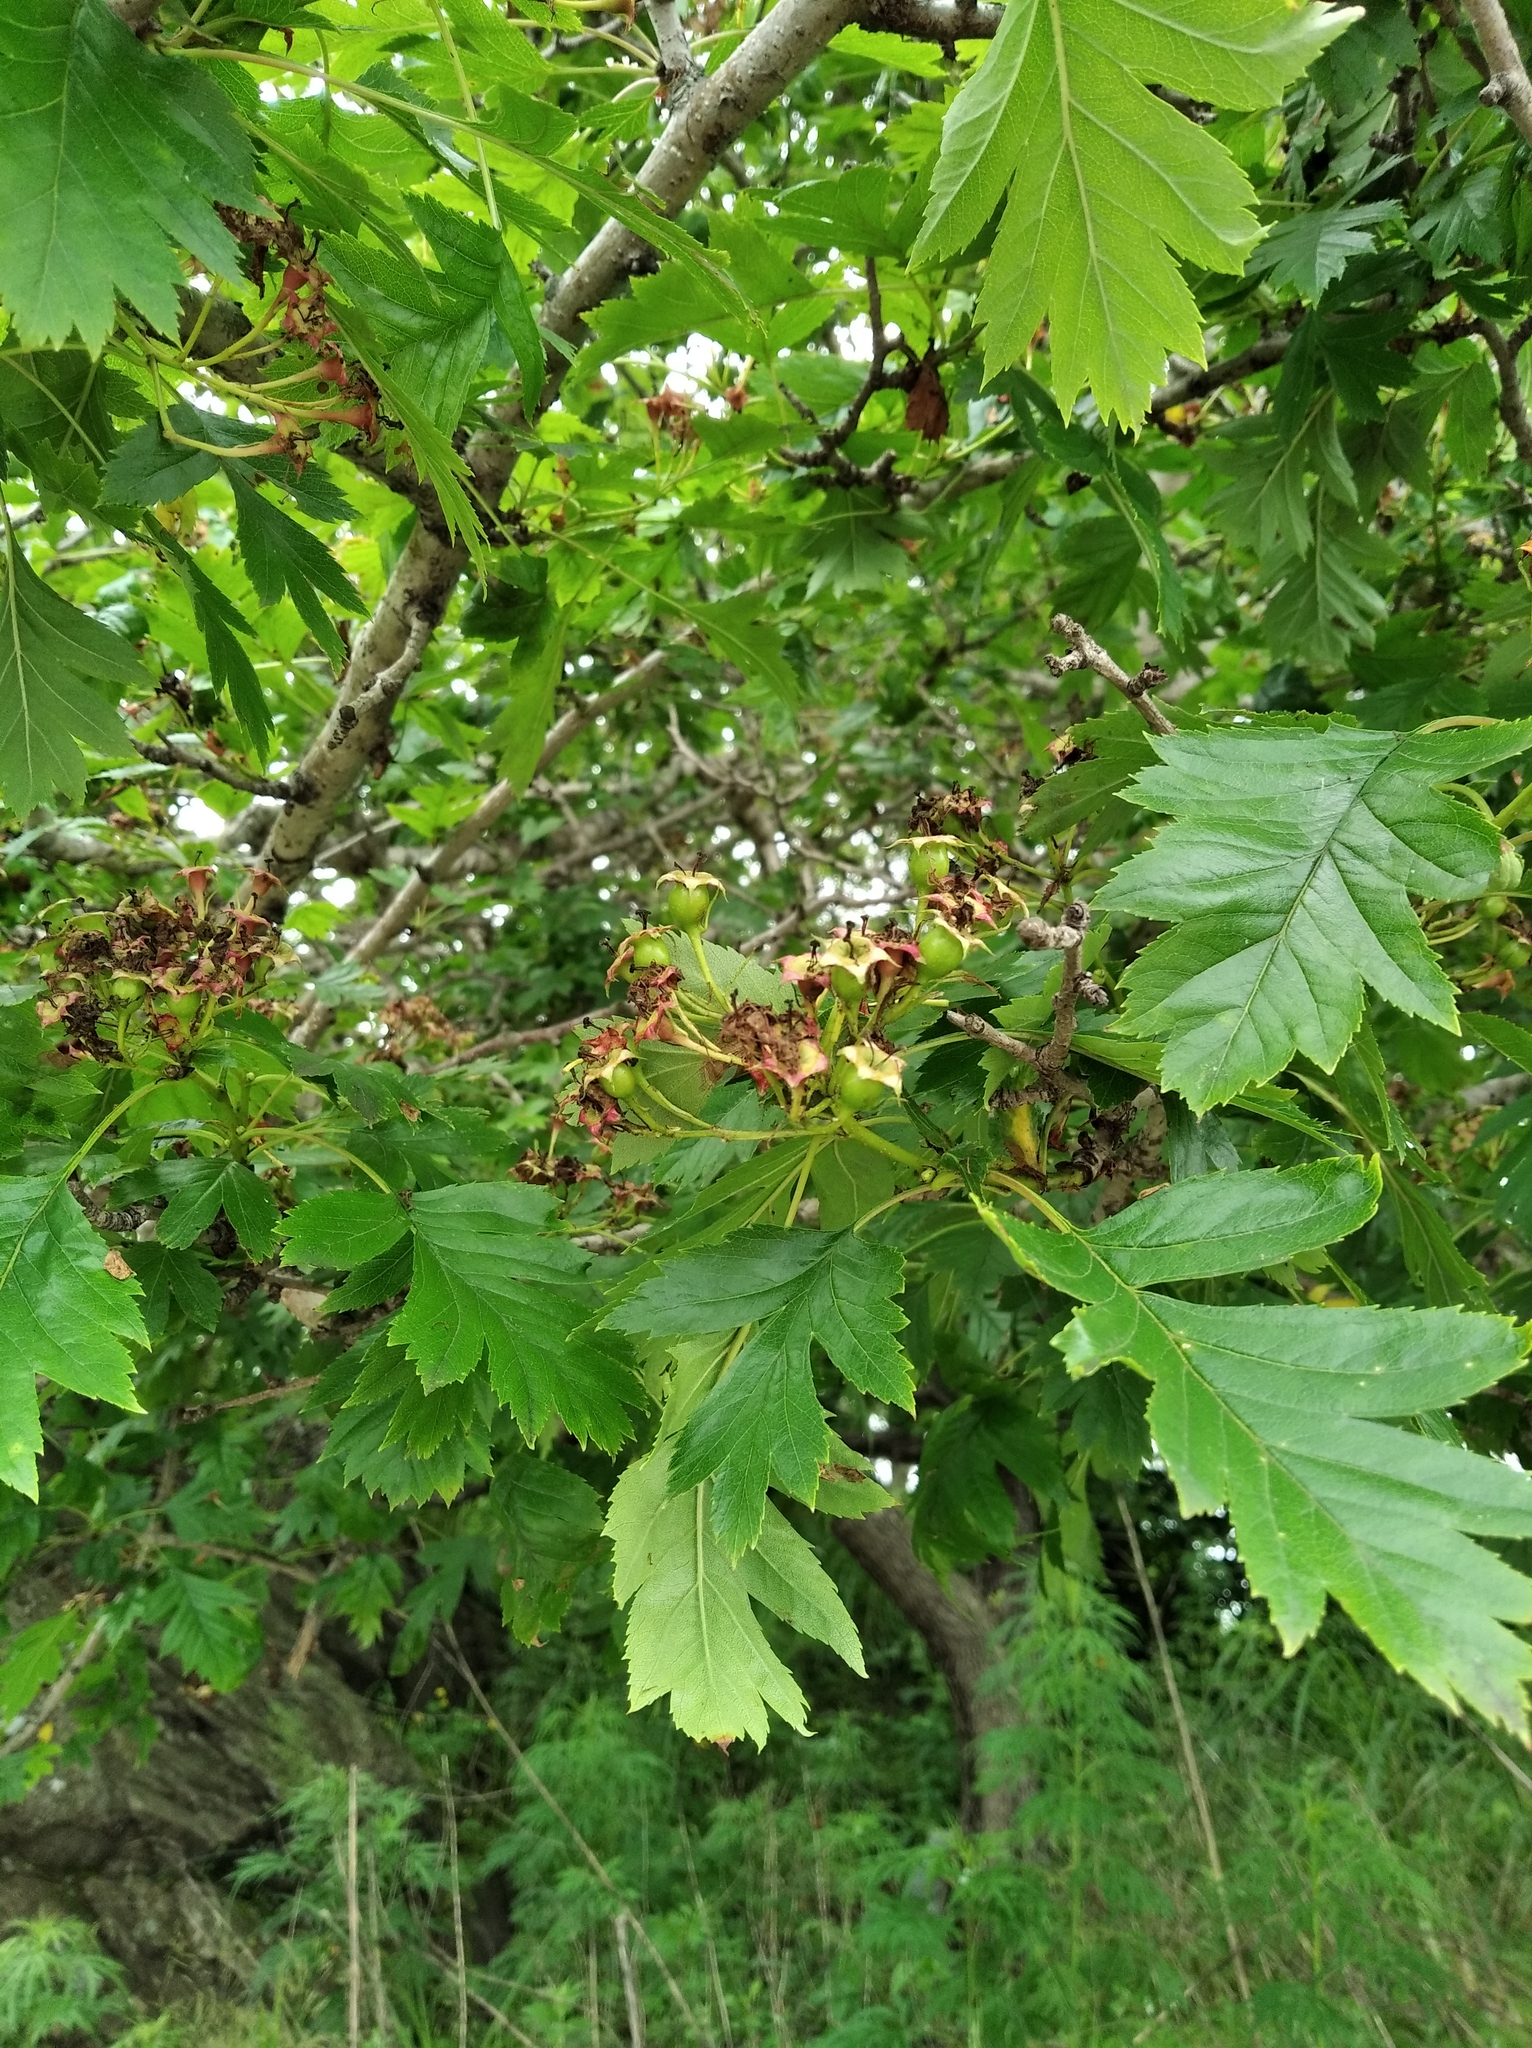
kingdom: Plantae
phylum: Tracheophyta
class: Magnoliopsida
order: Rosales
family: Rosaceae
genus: Crataegus
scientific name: Crataegus pinnatifida
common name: Chinese haw
